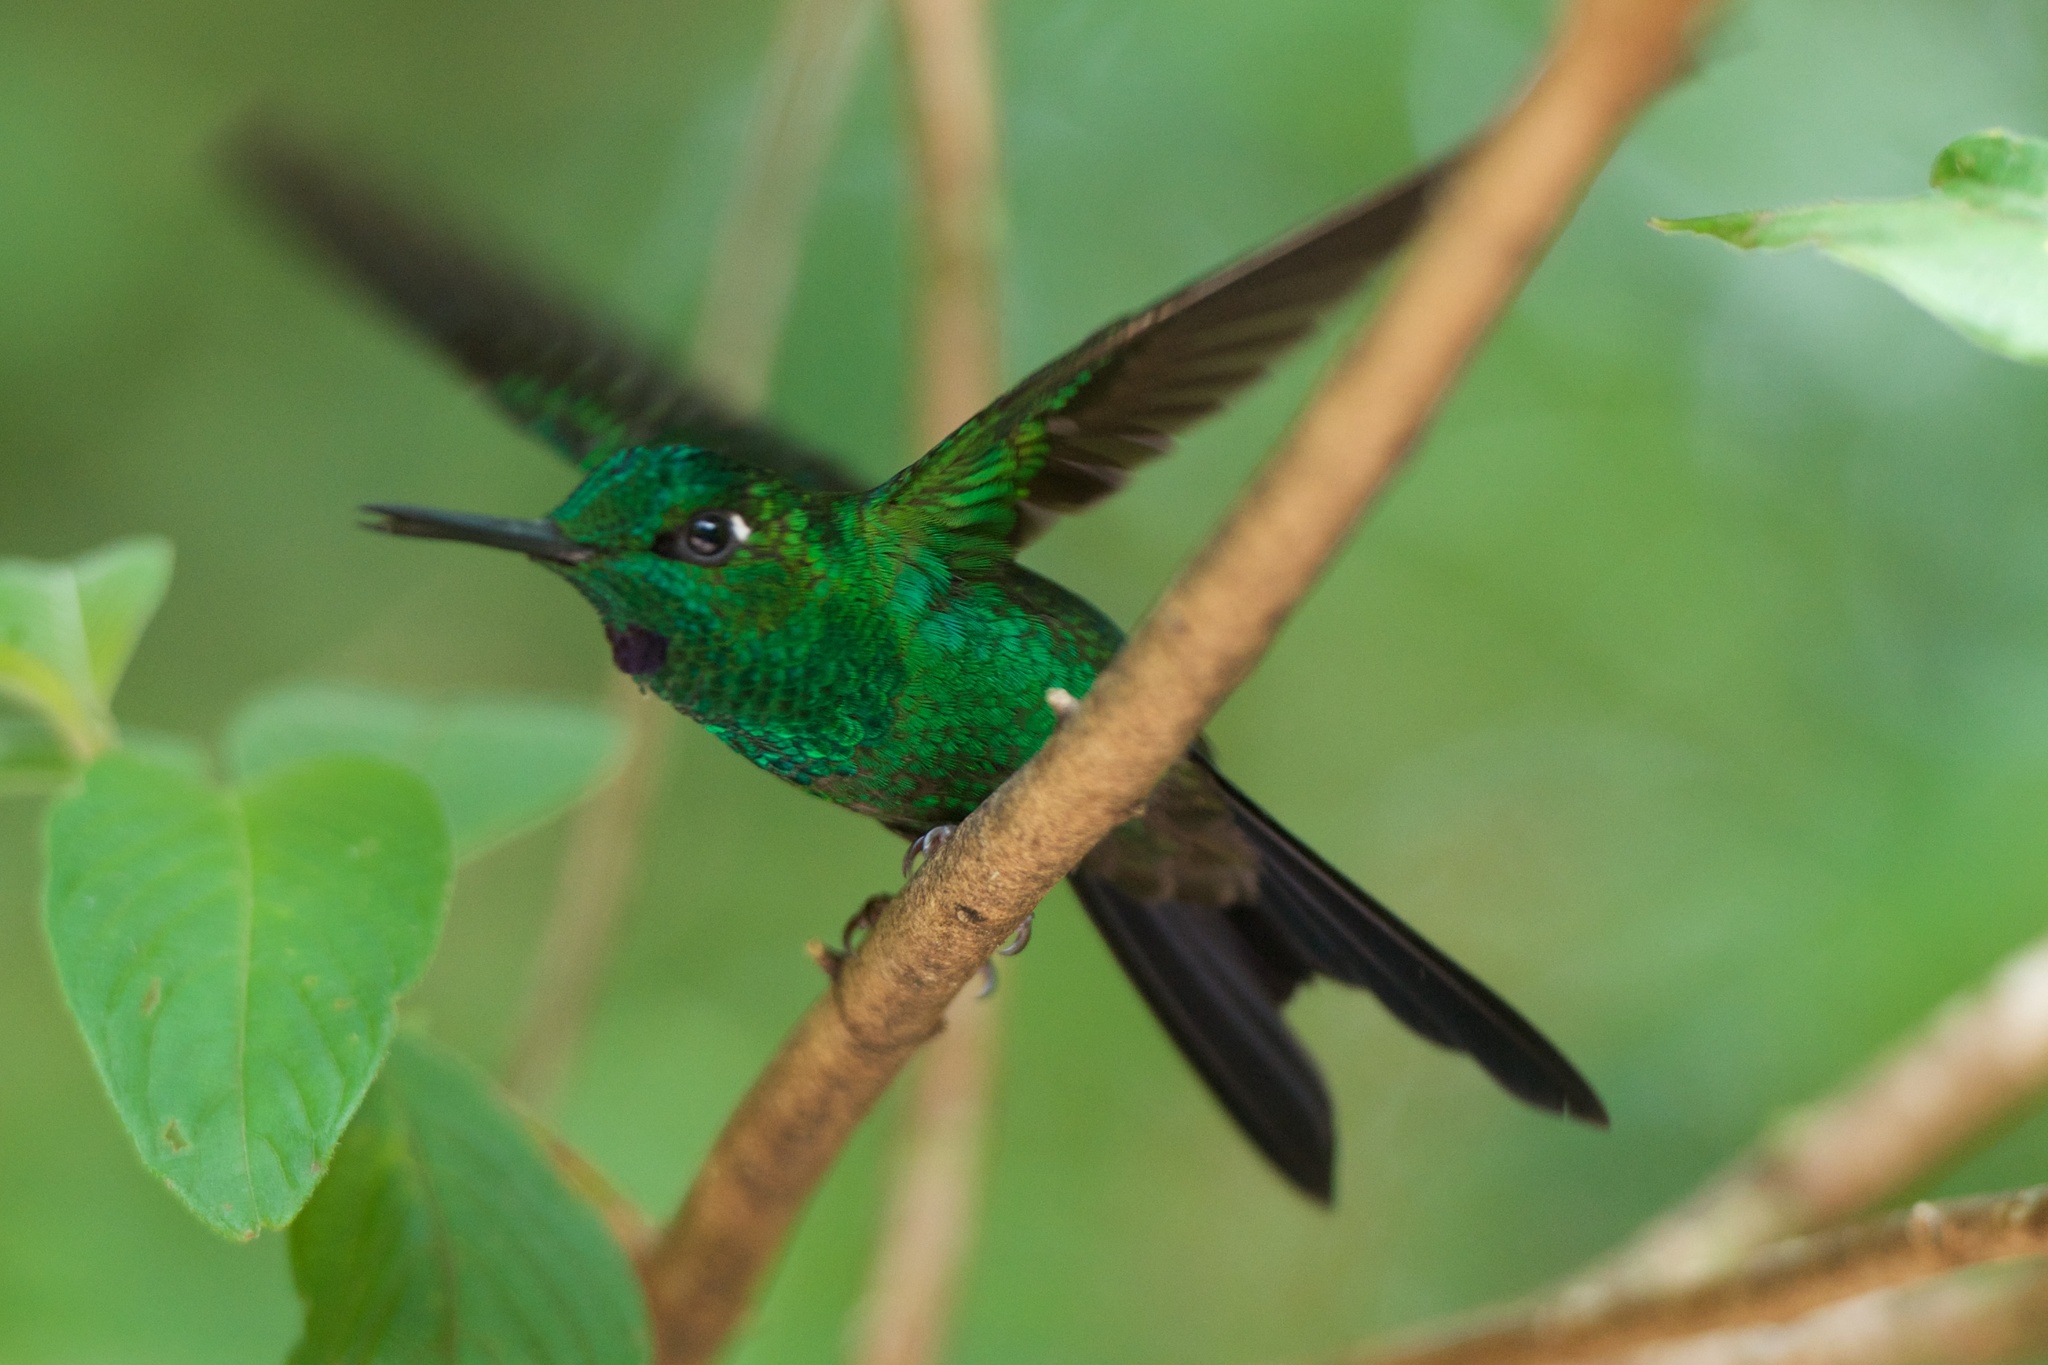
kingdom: Animalia
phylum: Chordata
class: Aves
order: Apodiformes
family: Trochilidae
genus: Heliodoxa
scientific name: Heliodoxa jacula
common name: Green-crowned brilliant
